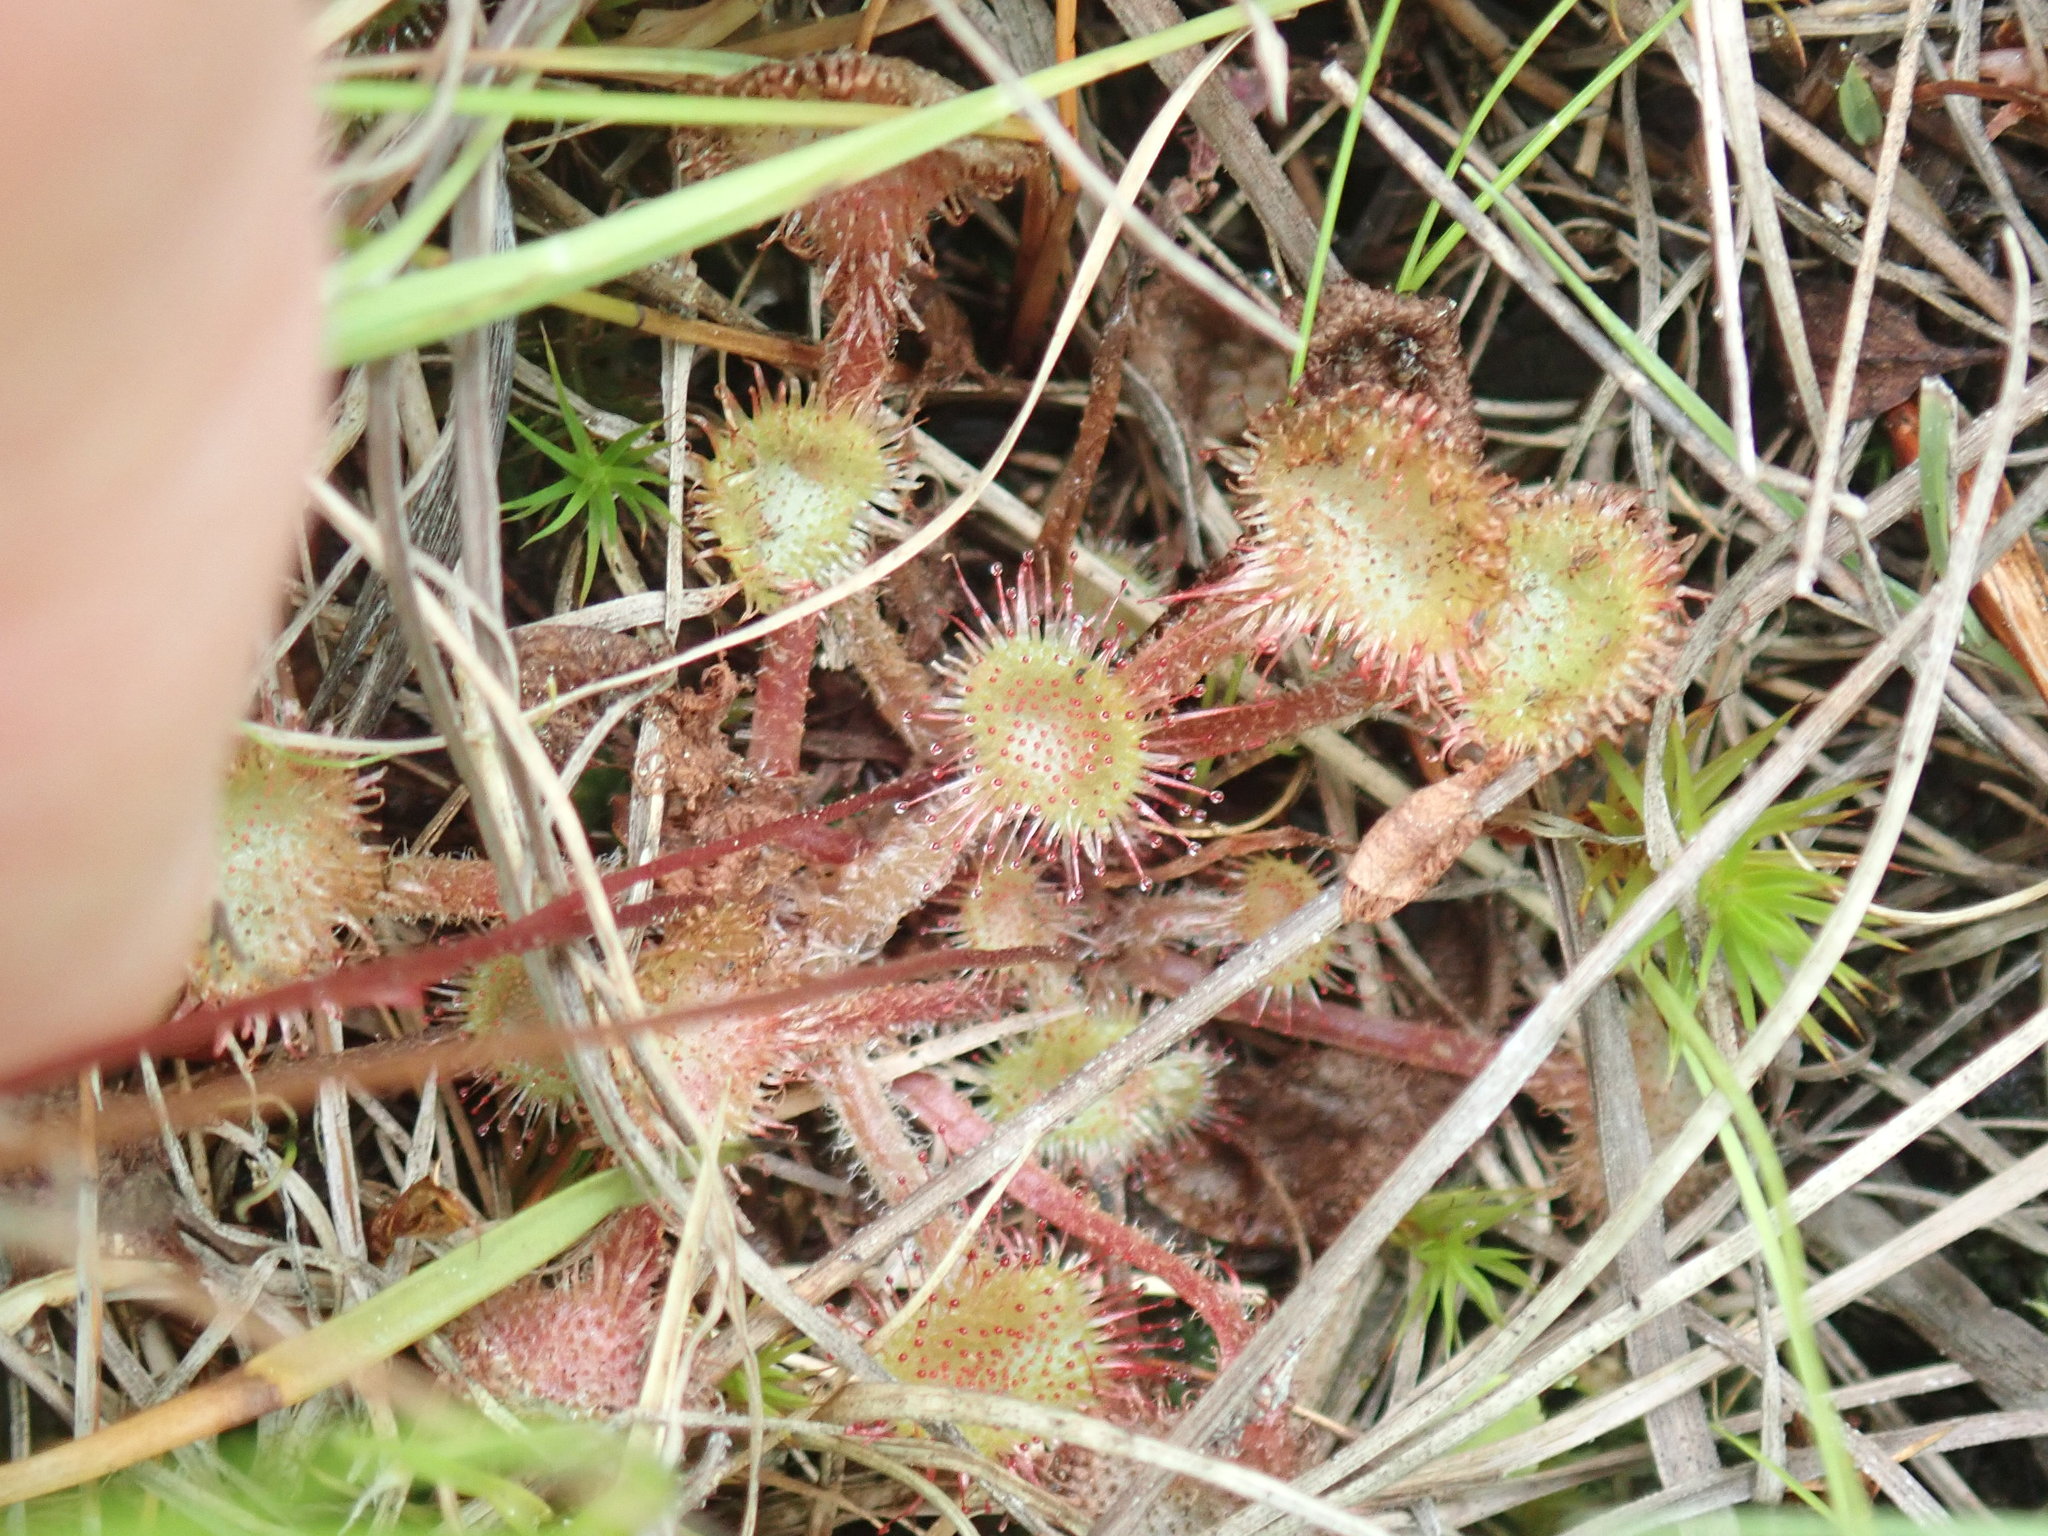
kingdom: Plantae
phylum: Tracheophyta
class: Magnoliopsida
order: Caryophyllales
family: Droseraceae
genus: Drosera
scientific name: Drosera rotundifolia
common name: Round-leaved sundew
